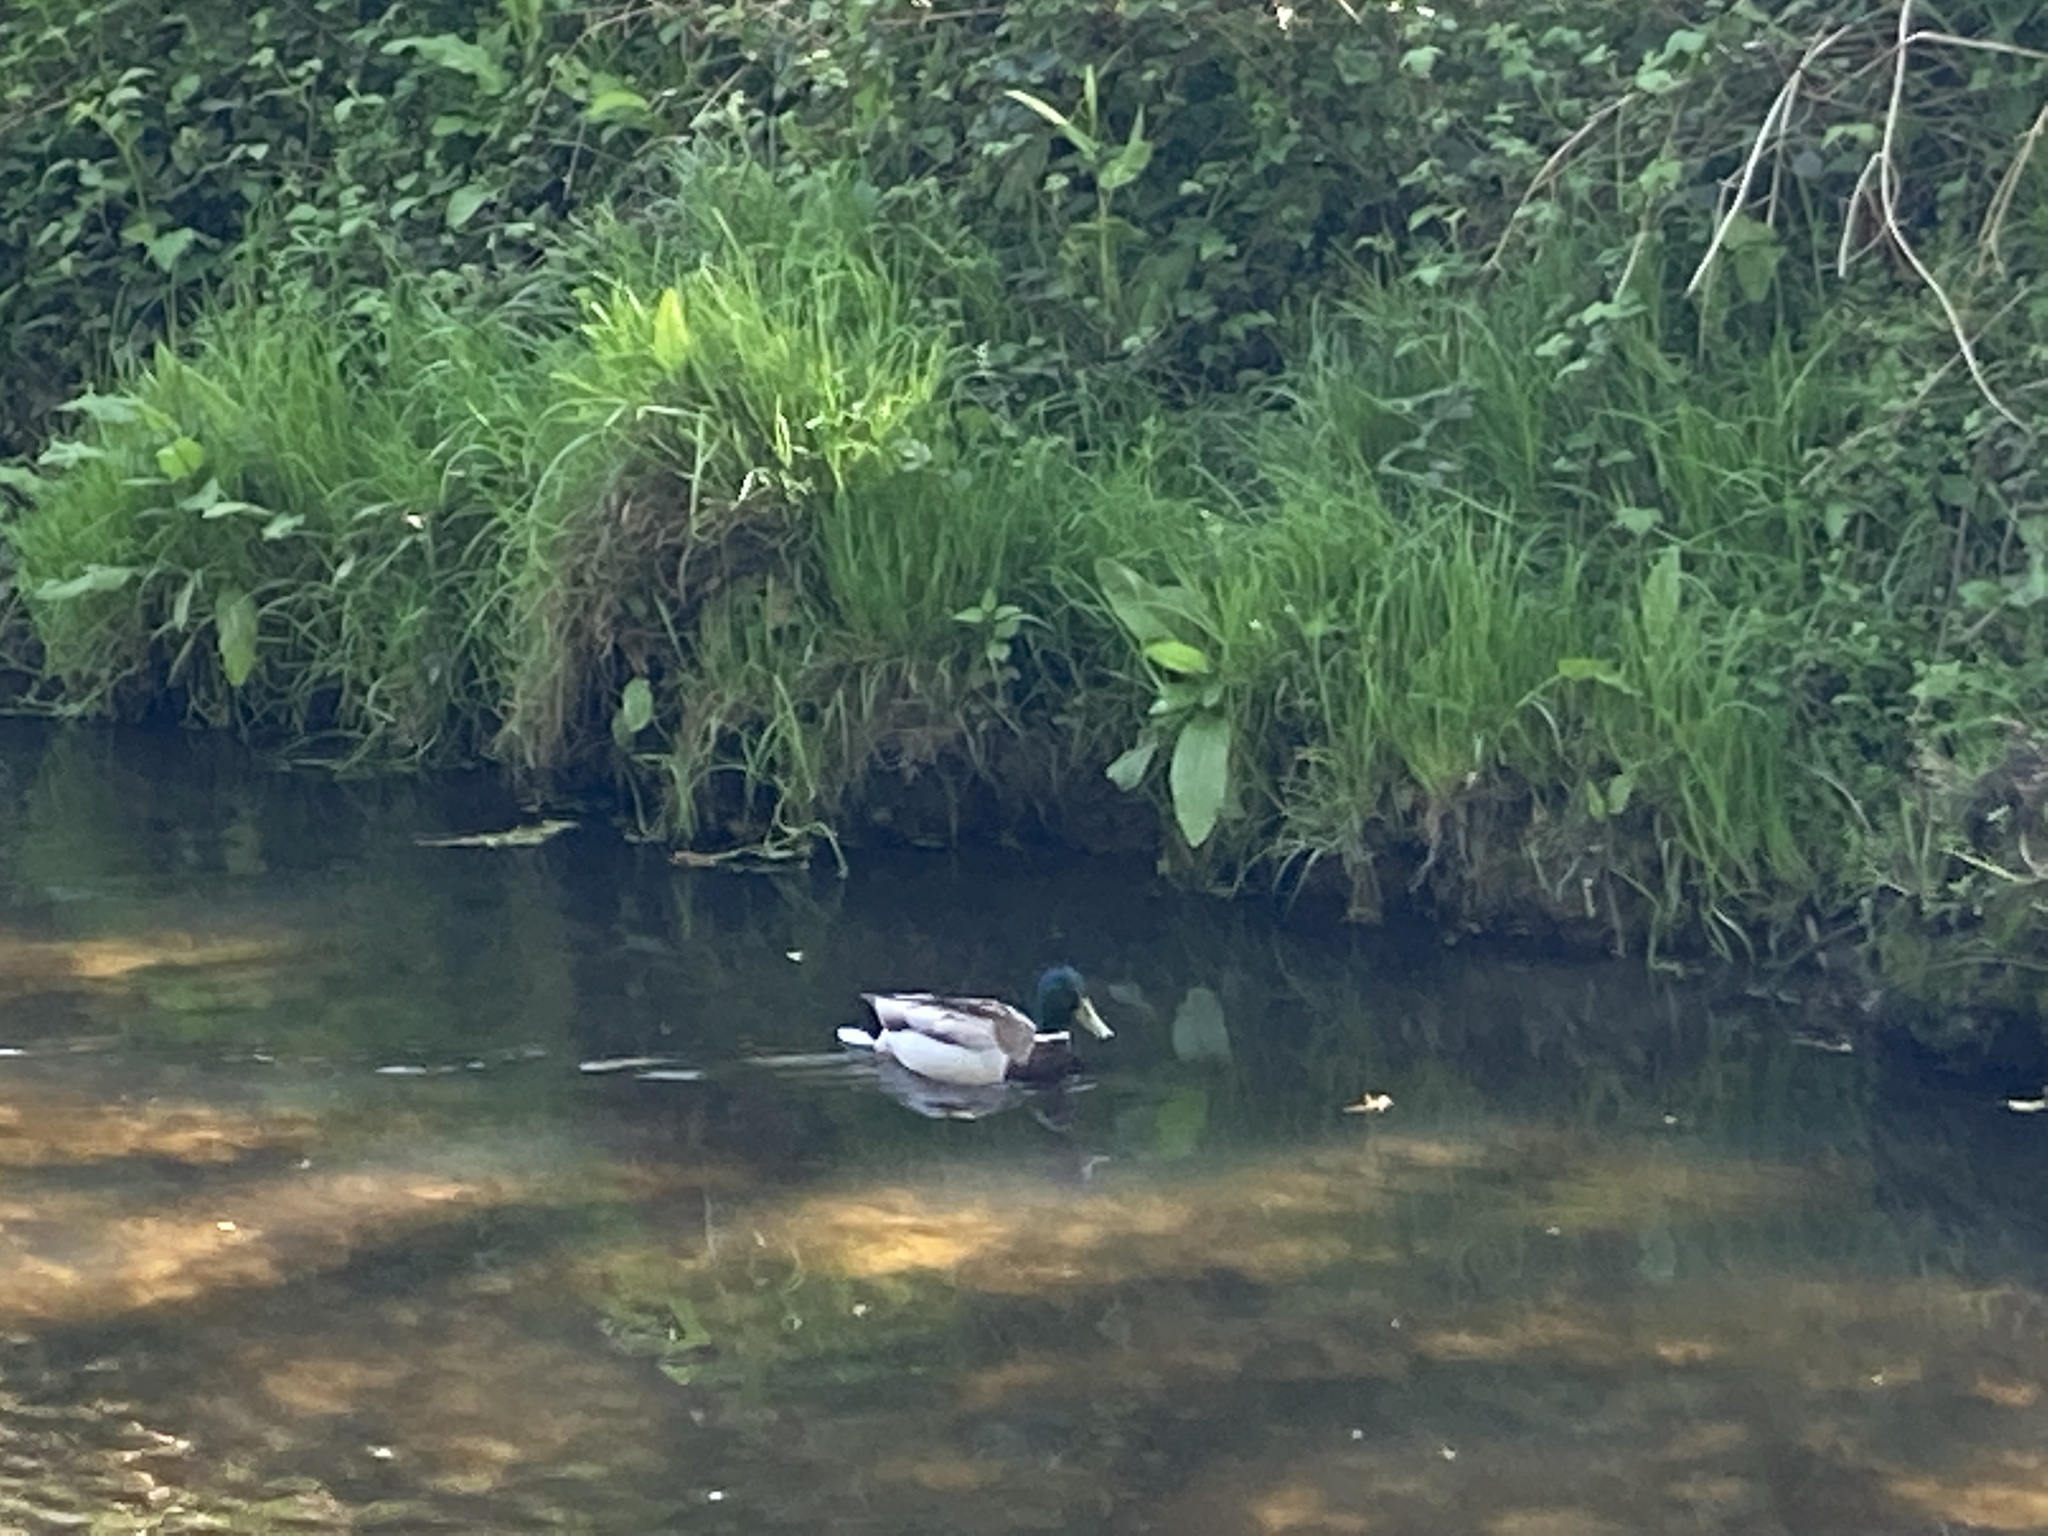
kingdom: Animalia
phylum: Chordata
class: Aves
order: Anseriformes
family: Anatidae
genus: Anas
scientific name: Anas platyrhynchos
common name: Mallard
